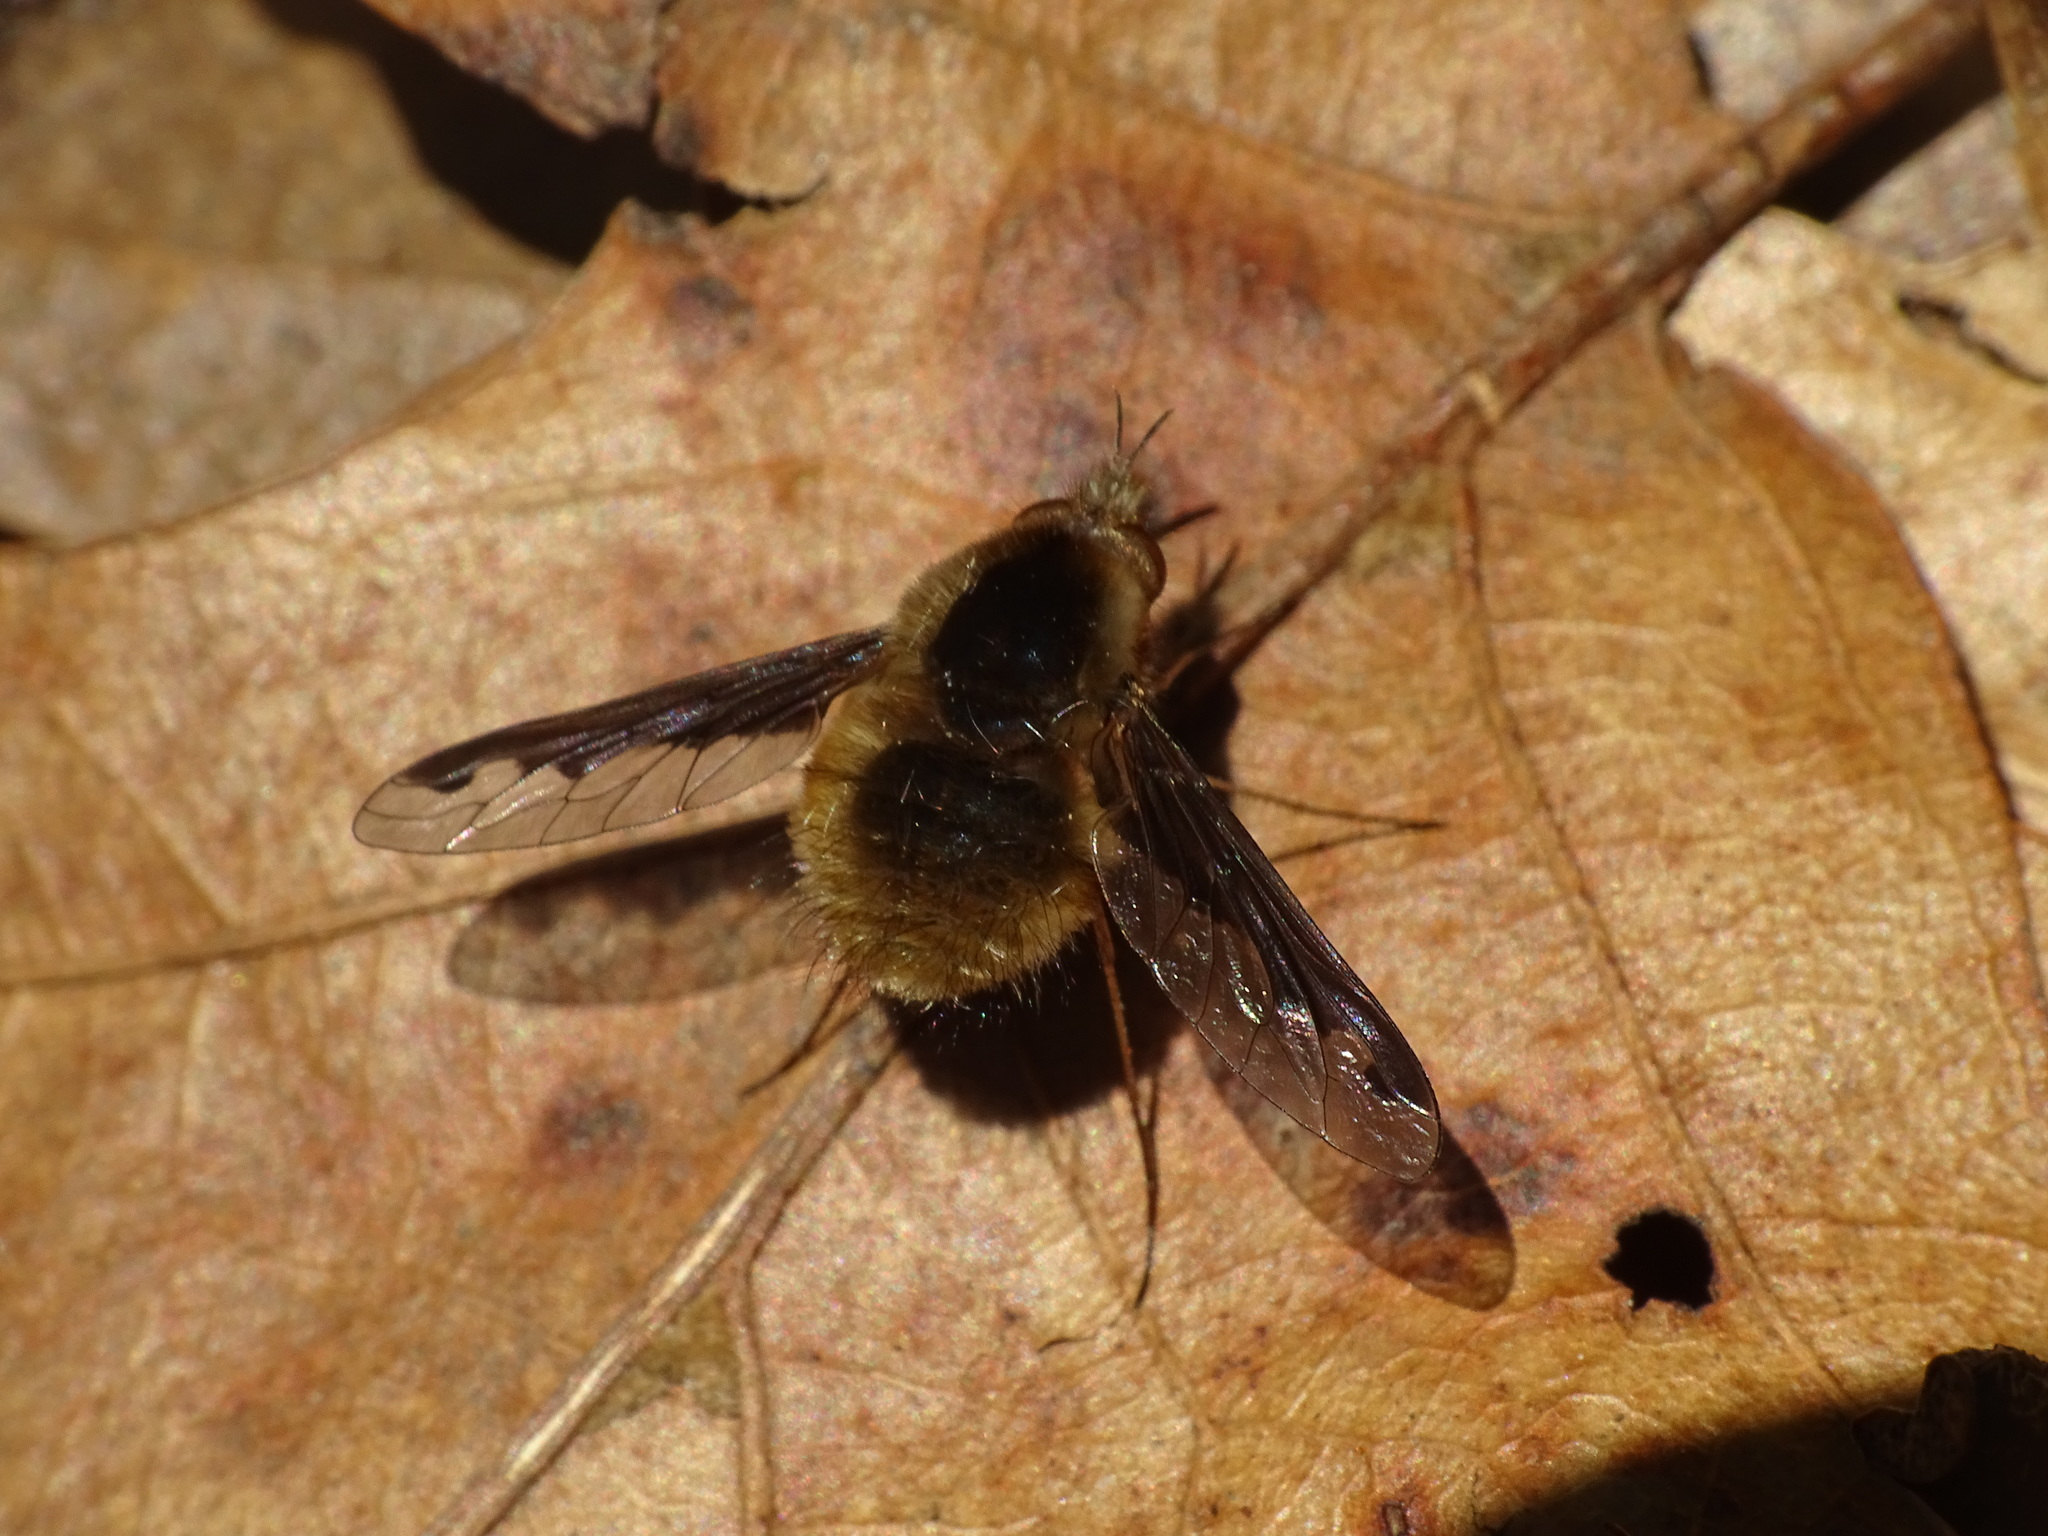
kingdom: Animalia
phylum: Arthropoda
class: Insecta
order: Diptera
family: Bombyliidae
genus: Bombylius
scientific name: Bombylius major
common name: Bee fly
